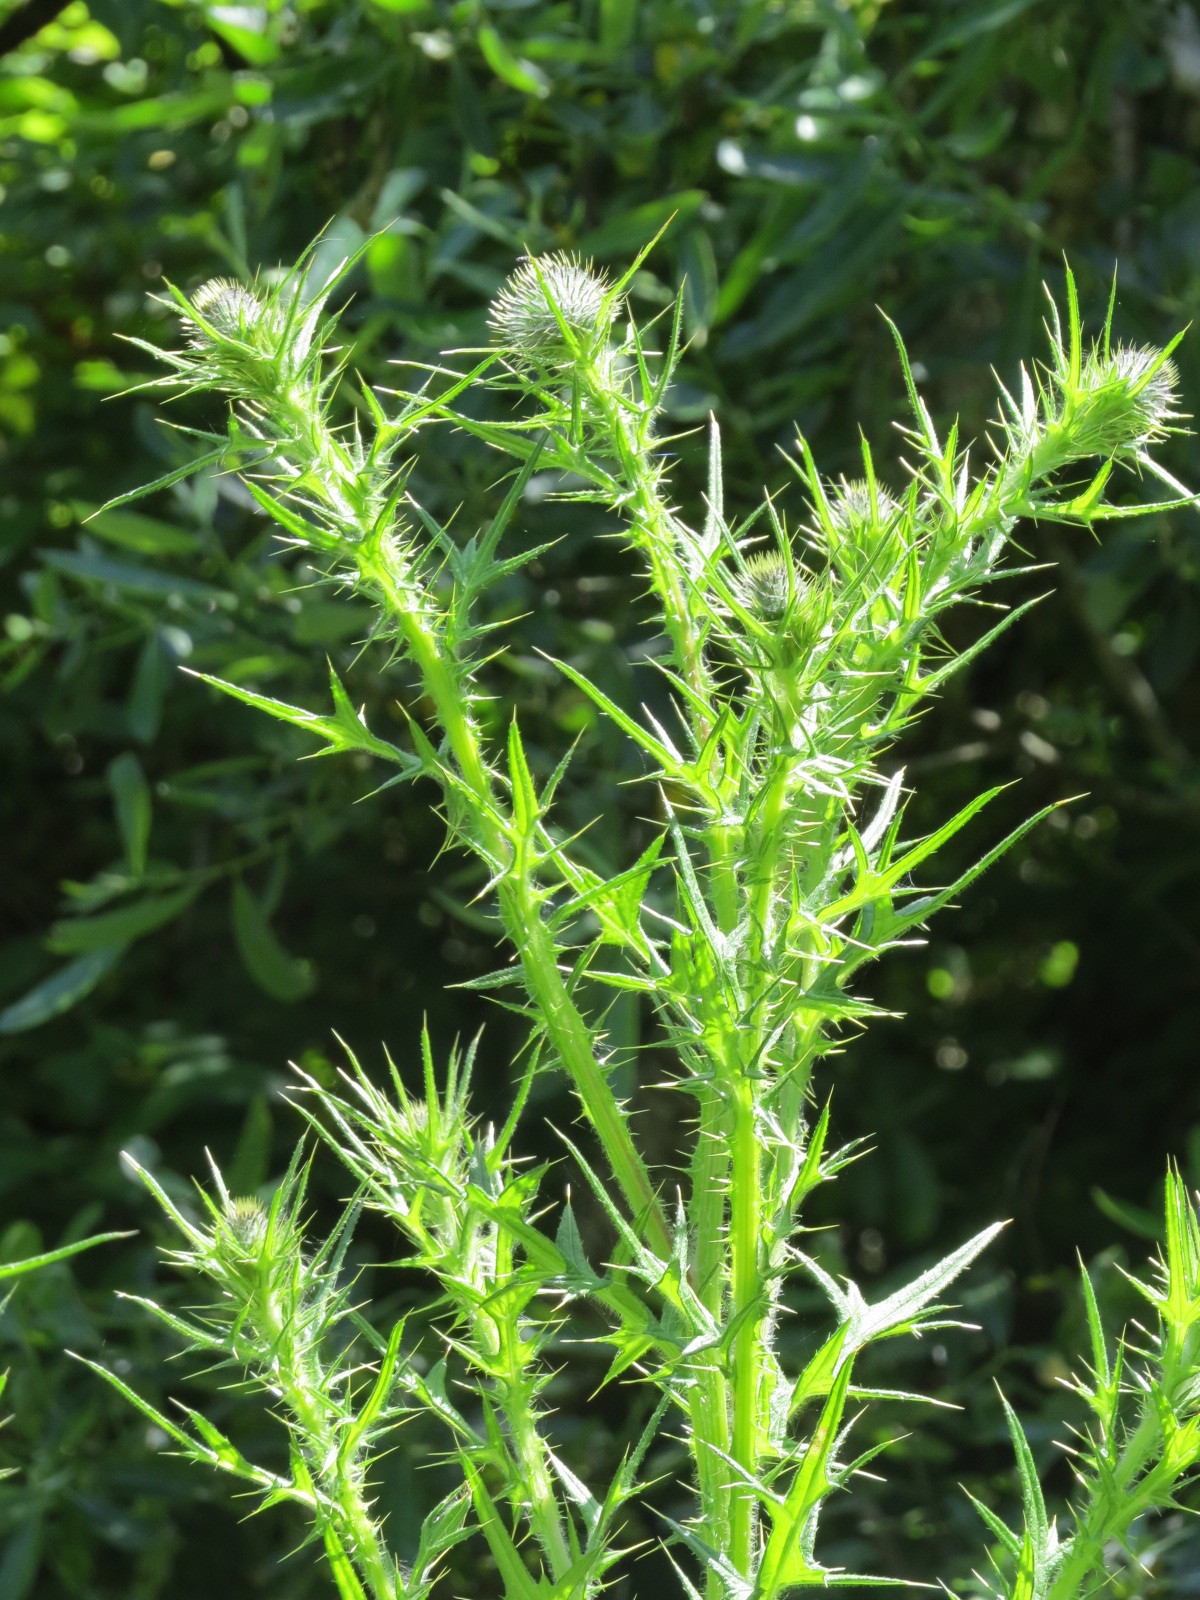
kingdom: Plantae
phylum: Tracheophyta
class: Magnoliopsida
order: Asterales
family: Asteraceae
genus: Cirsium
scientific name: Cirsium vulgare
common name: Bull thistle
